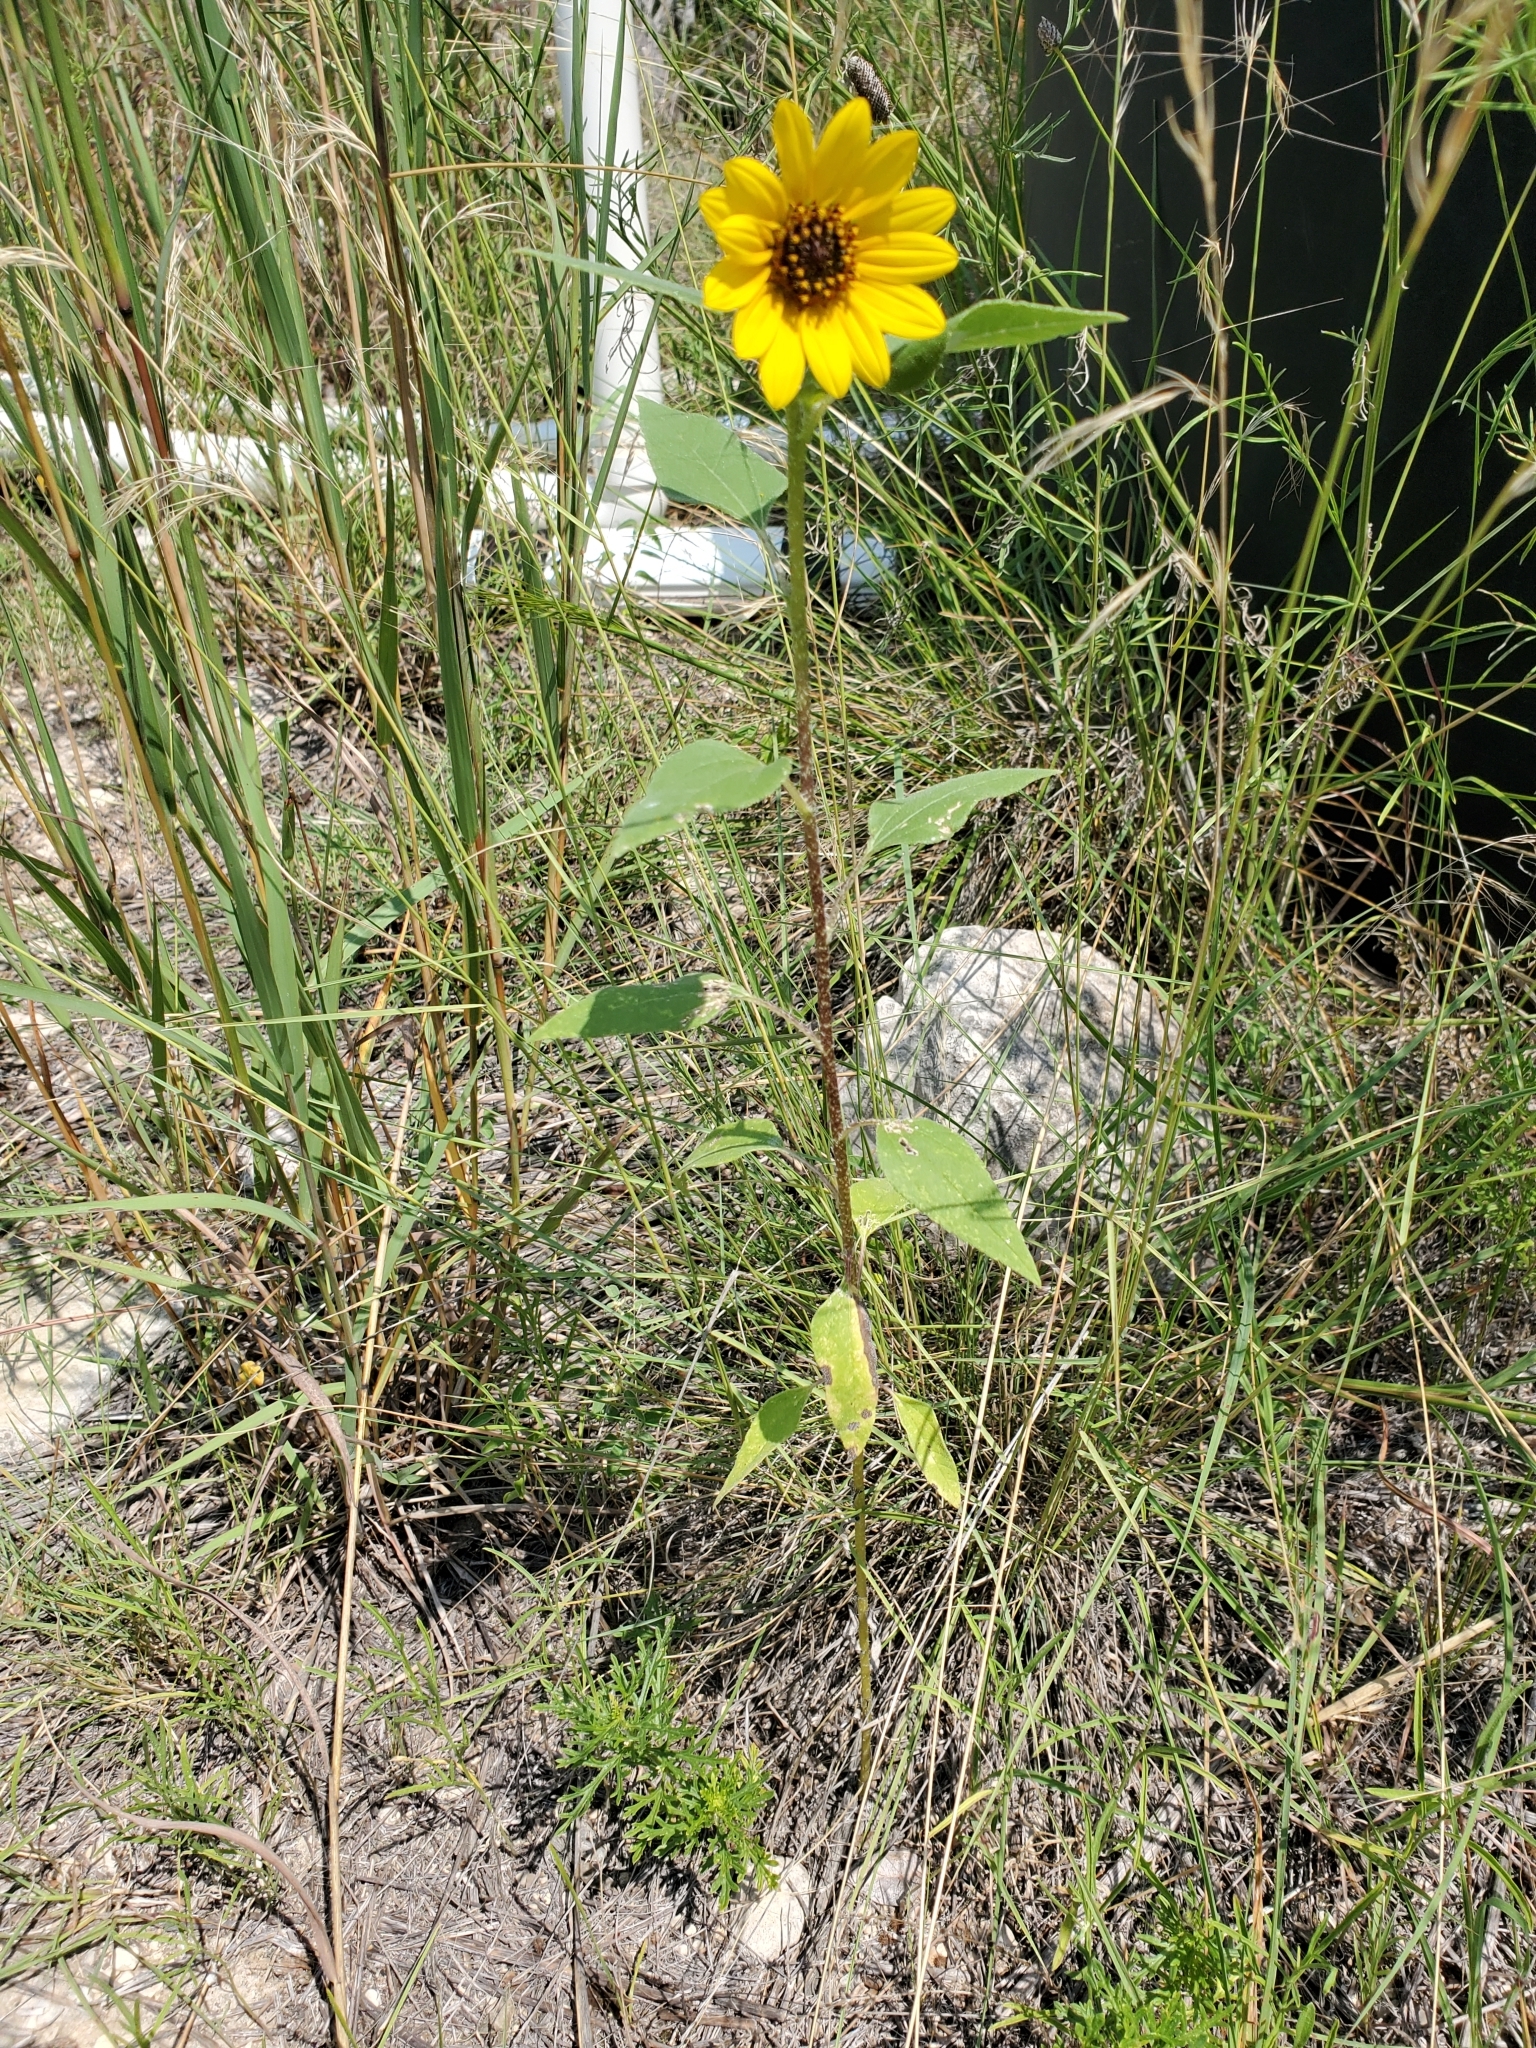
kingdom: Plantae
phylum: Tracheophyta
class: Magnoliopsida
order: Asterales
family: Asteraceae
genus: Helianthus
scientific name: Helianthus petiolaris
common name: Lesser sunflower
